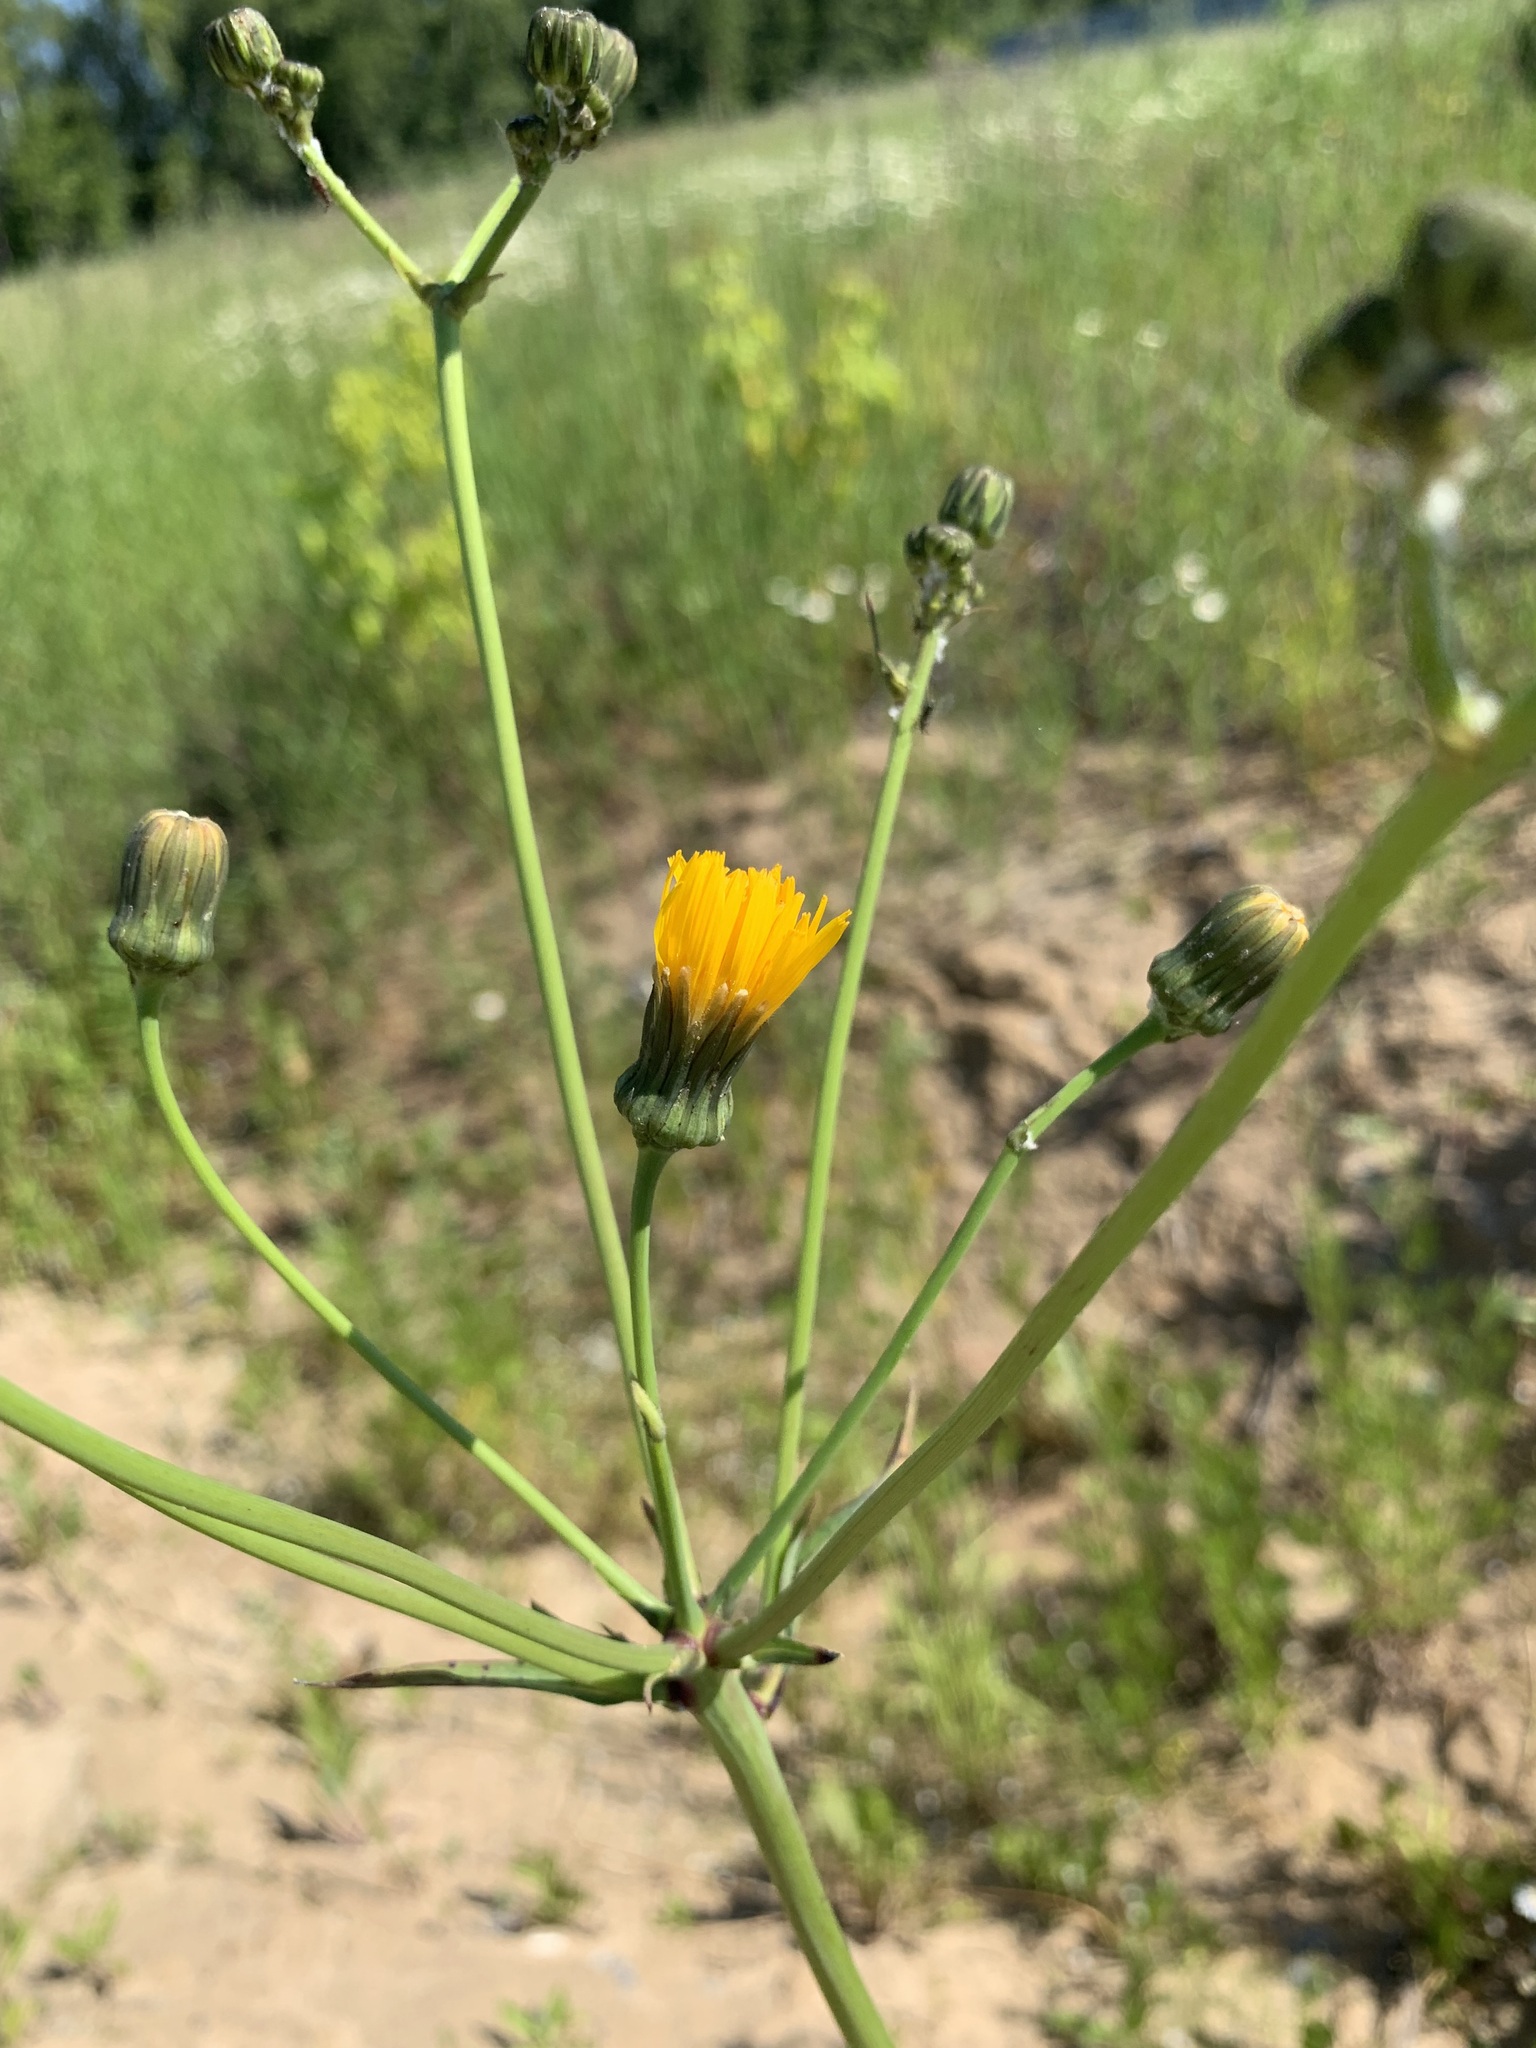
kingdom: Plantae
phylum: Tracheophyta
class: Magnoliopsida
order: Asterales
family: Asteraceae
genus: Sonchus
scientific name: Sonchus arvensis
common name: Perennial sow-thistle
